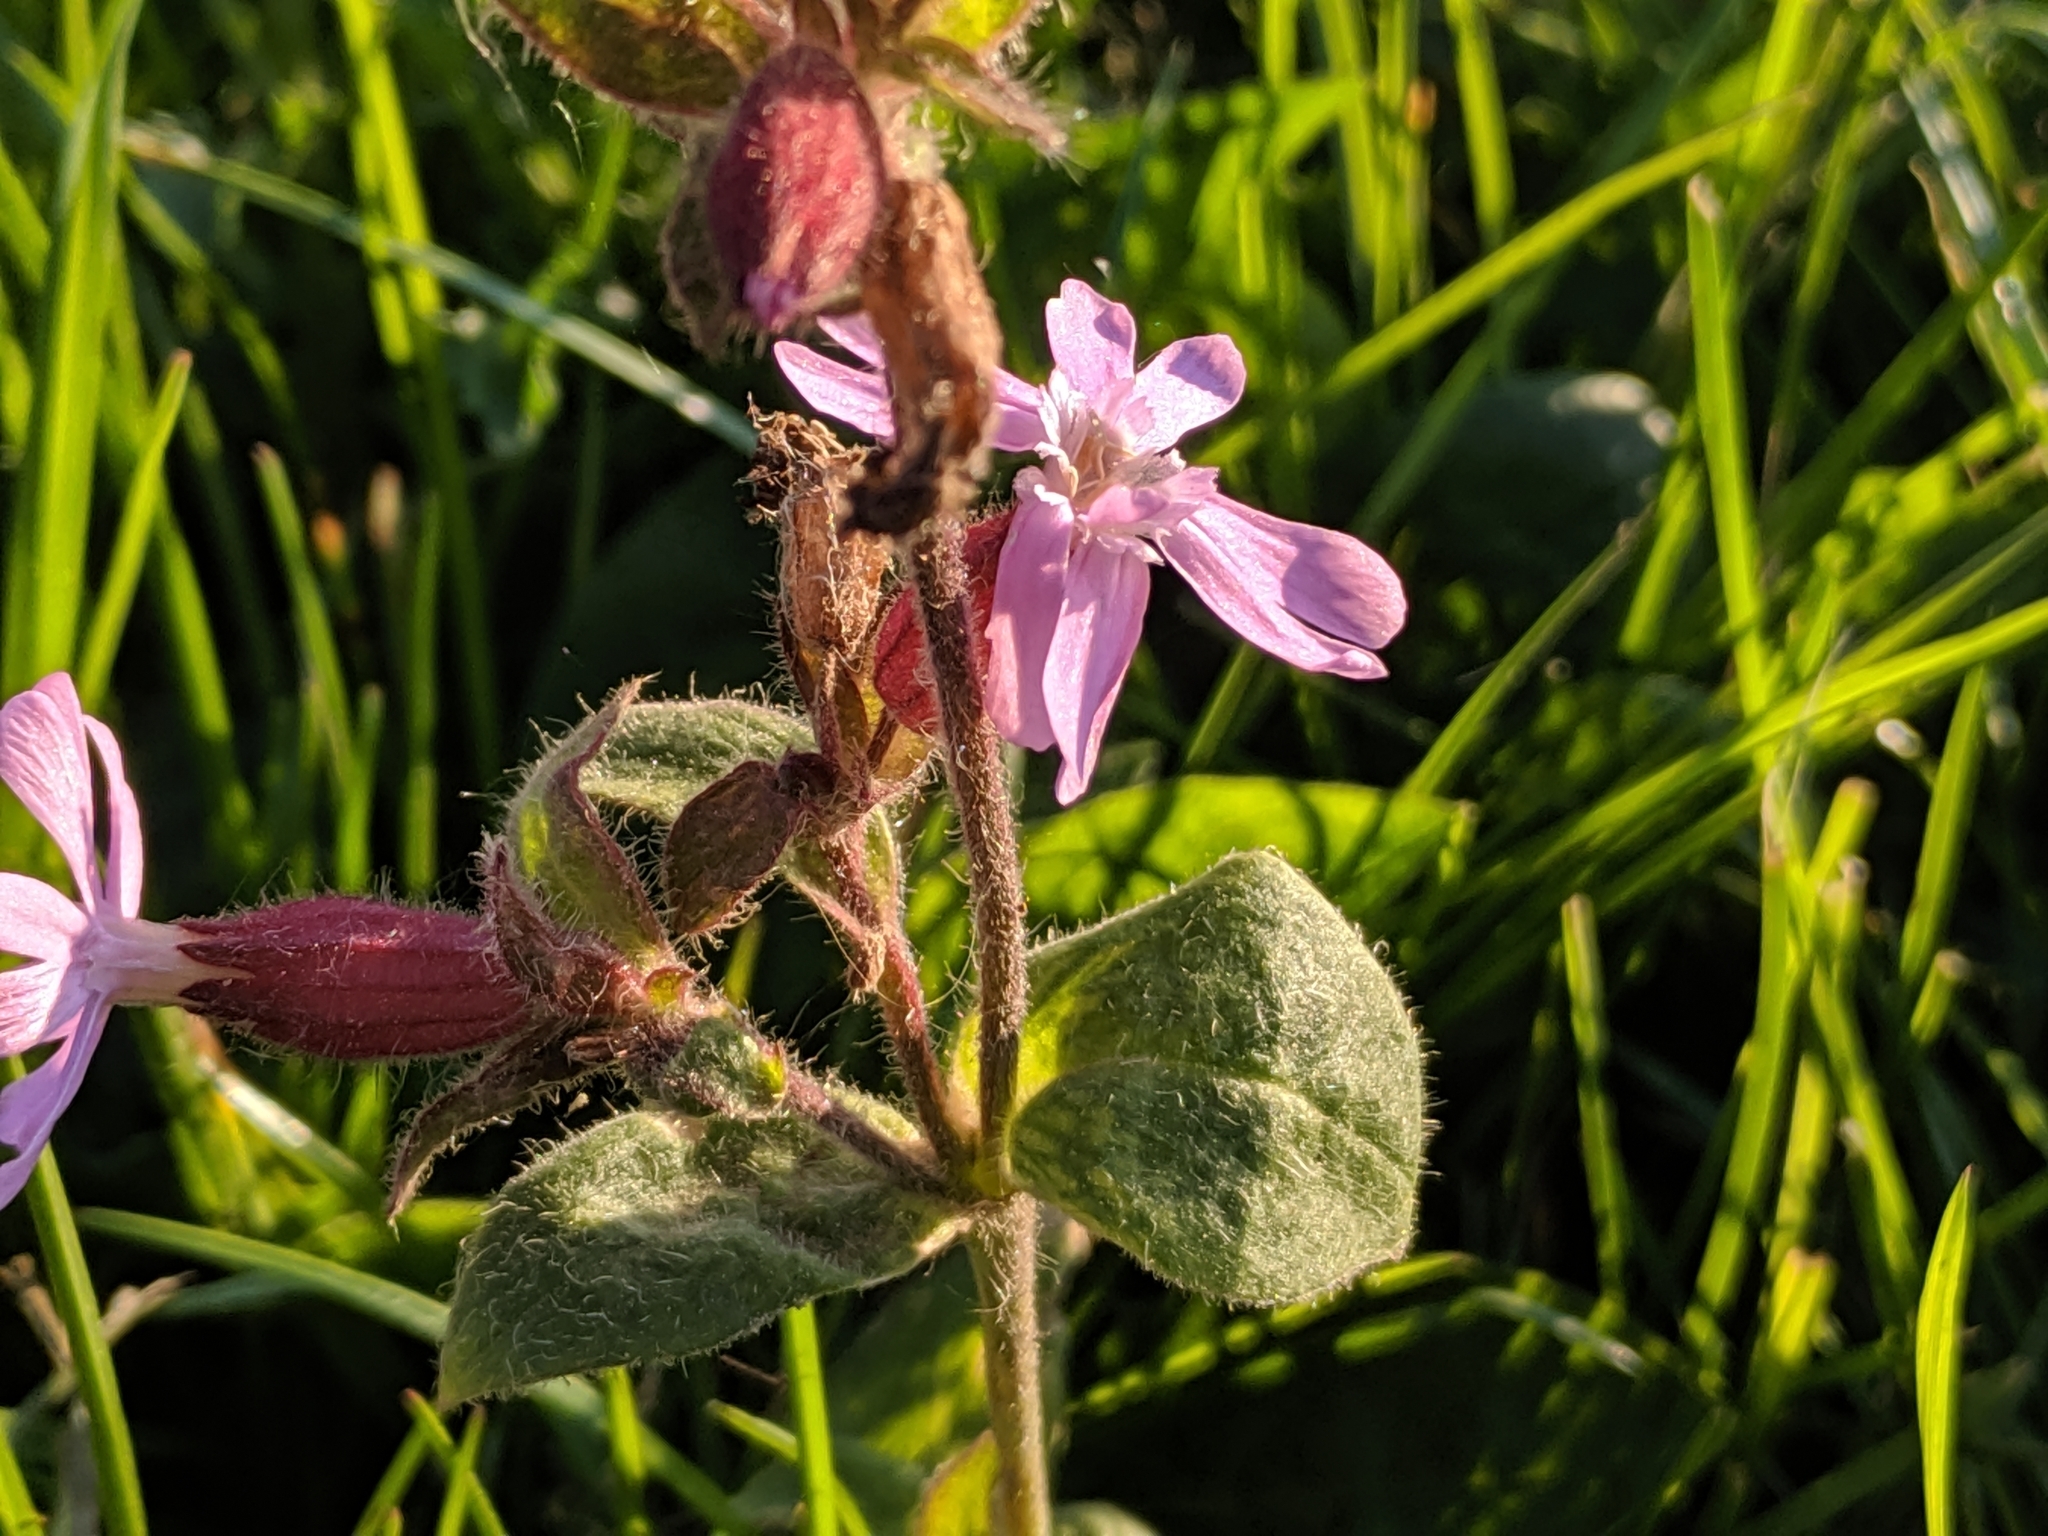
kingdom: Plantae
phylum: Tracheophyta
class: Magnoliopsida
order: Caryophyllales
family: Caryophyllaceae
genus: Silene
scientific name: Silene dioica
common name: Red campion
